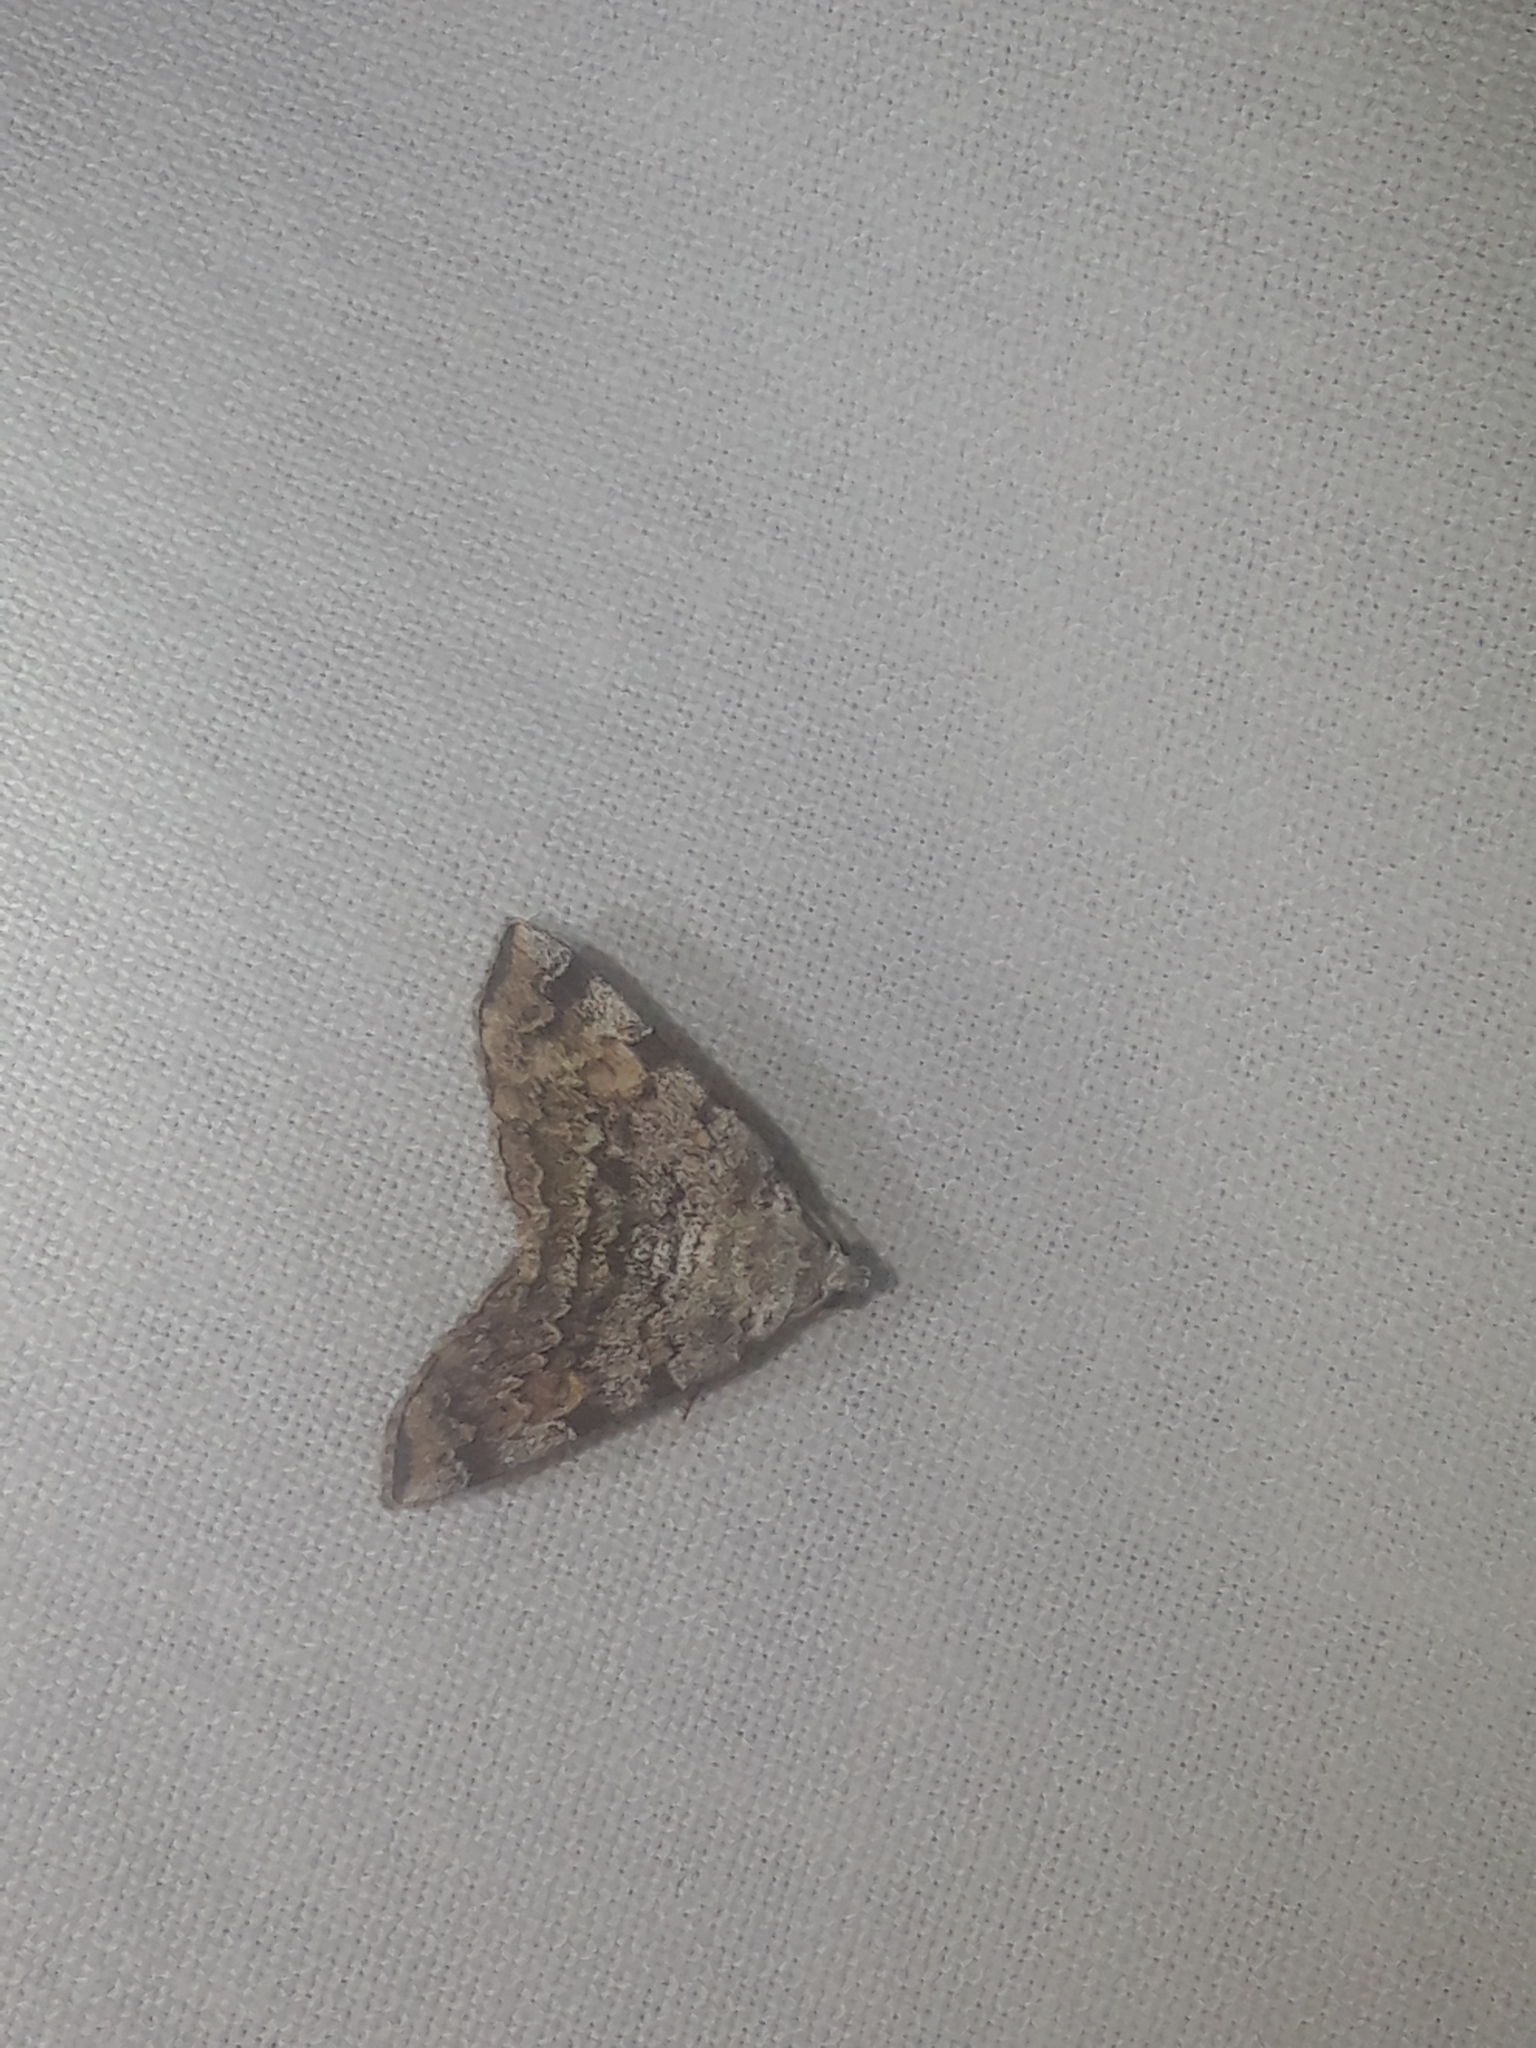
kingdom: Animalia
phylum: Arthropoda
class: Insecta
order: Lepidoptera
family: Erebidae
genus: Idia
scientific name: Idia americalis
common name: American idia moth
